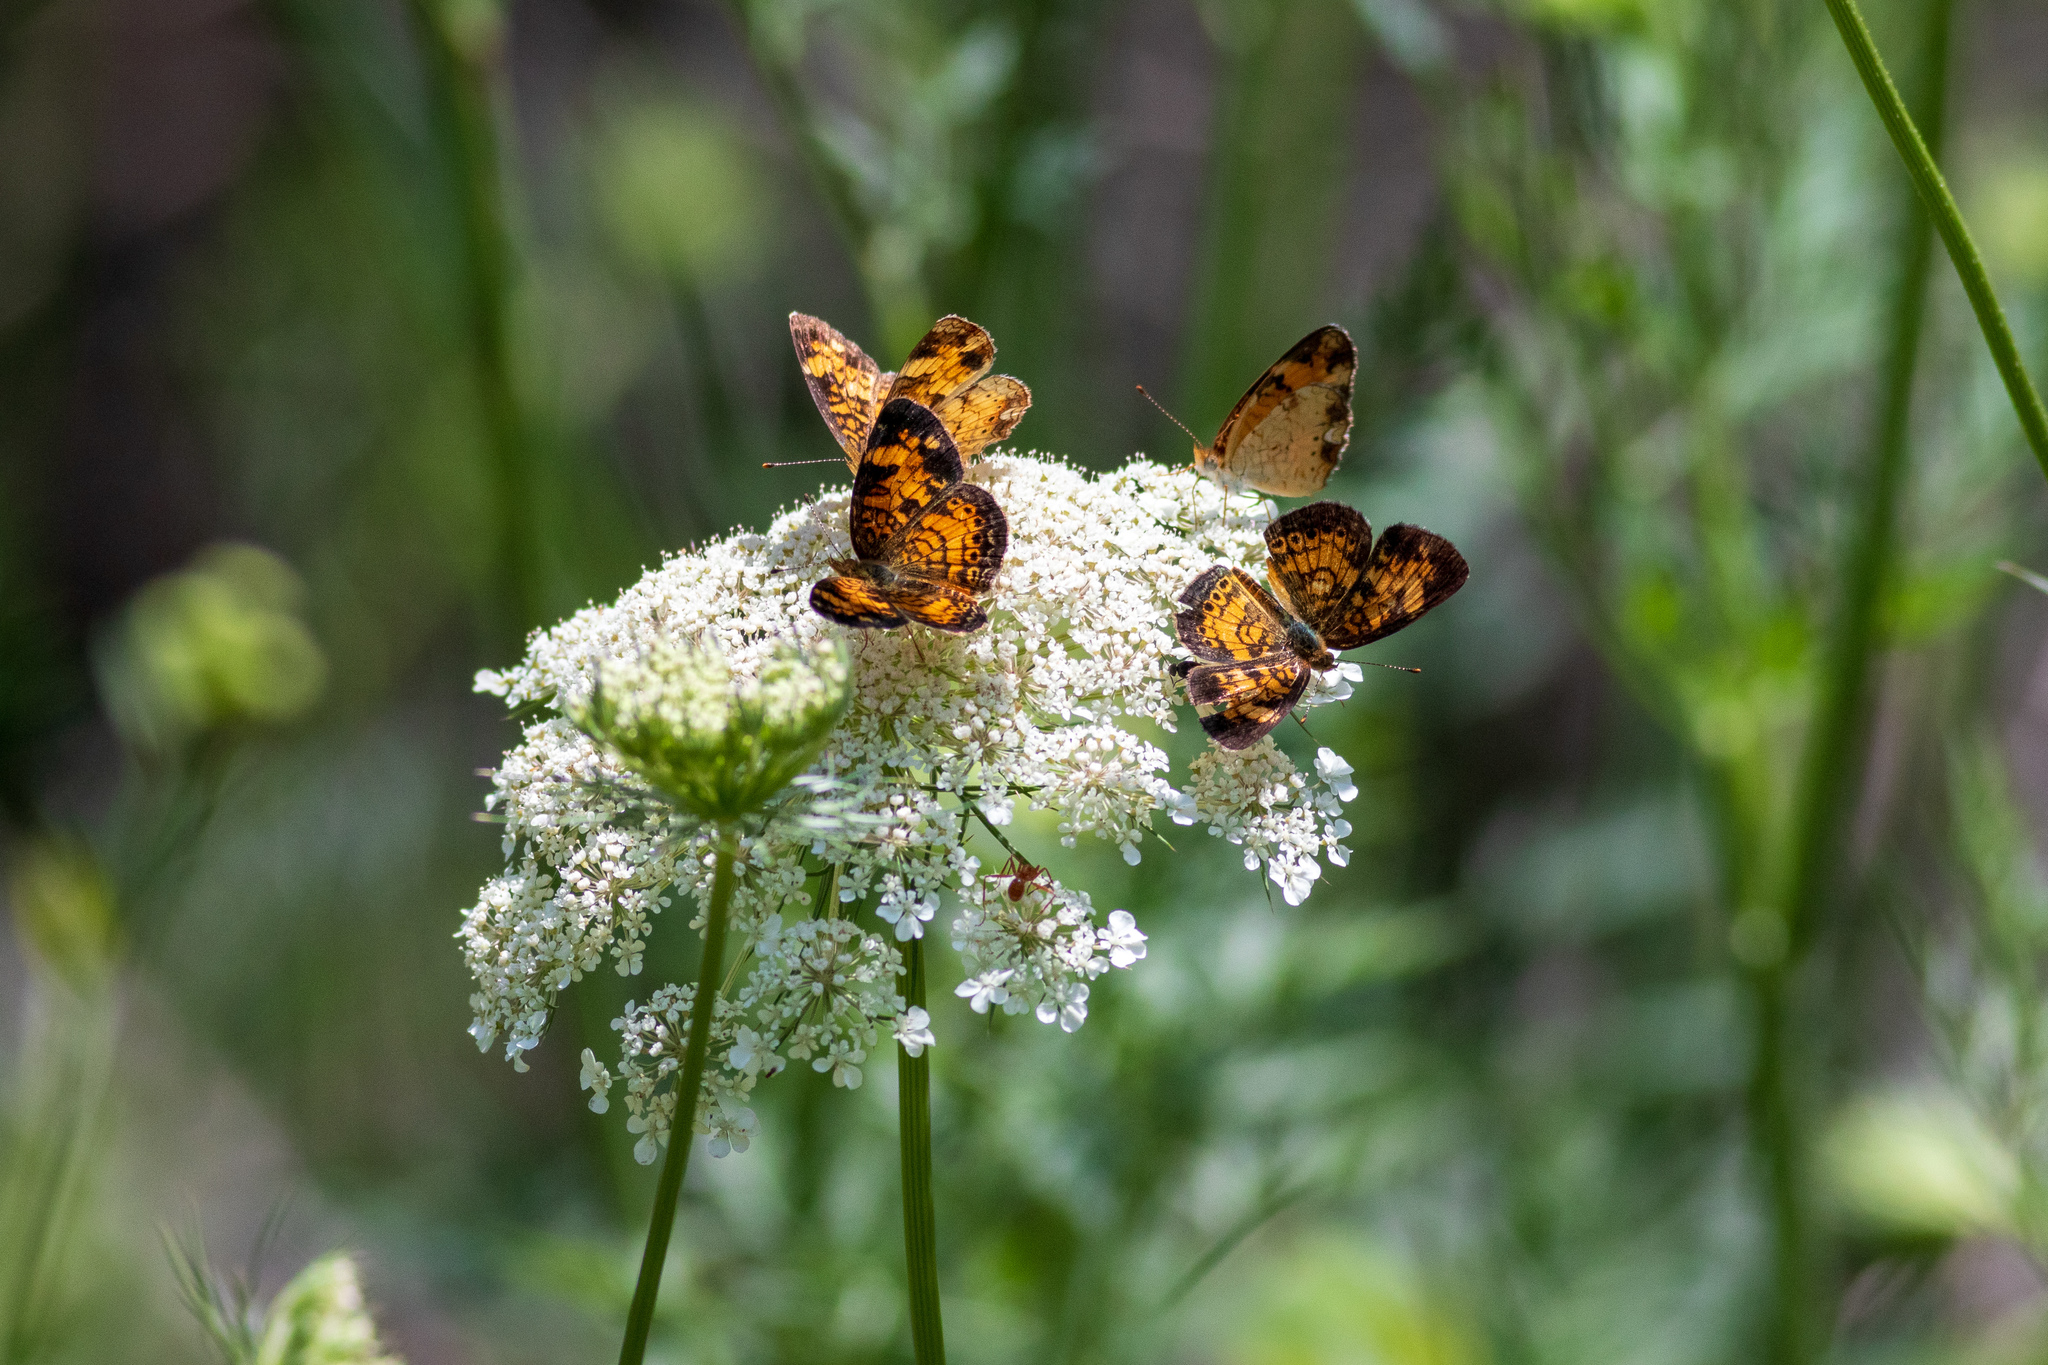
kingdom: Animalia
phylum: Arthropoda
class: Insecta
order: Lepidoptera
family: Nymphalidae
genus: Phyciodes
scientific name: Phyciodes tharos
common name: Pearl crescent
